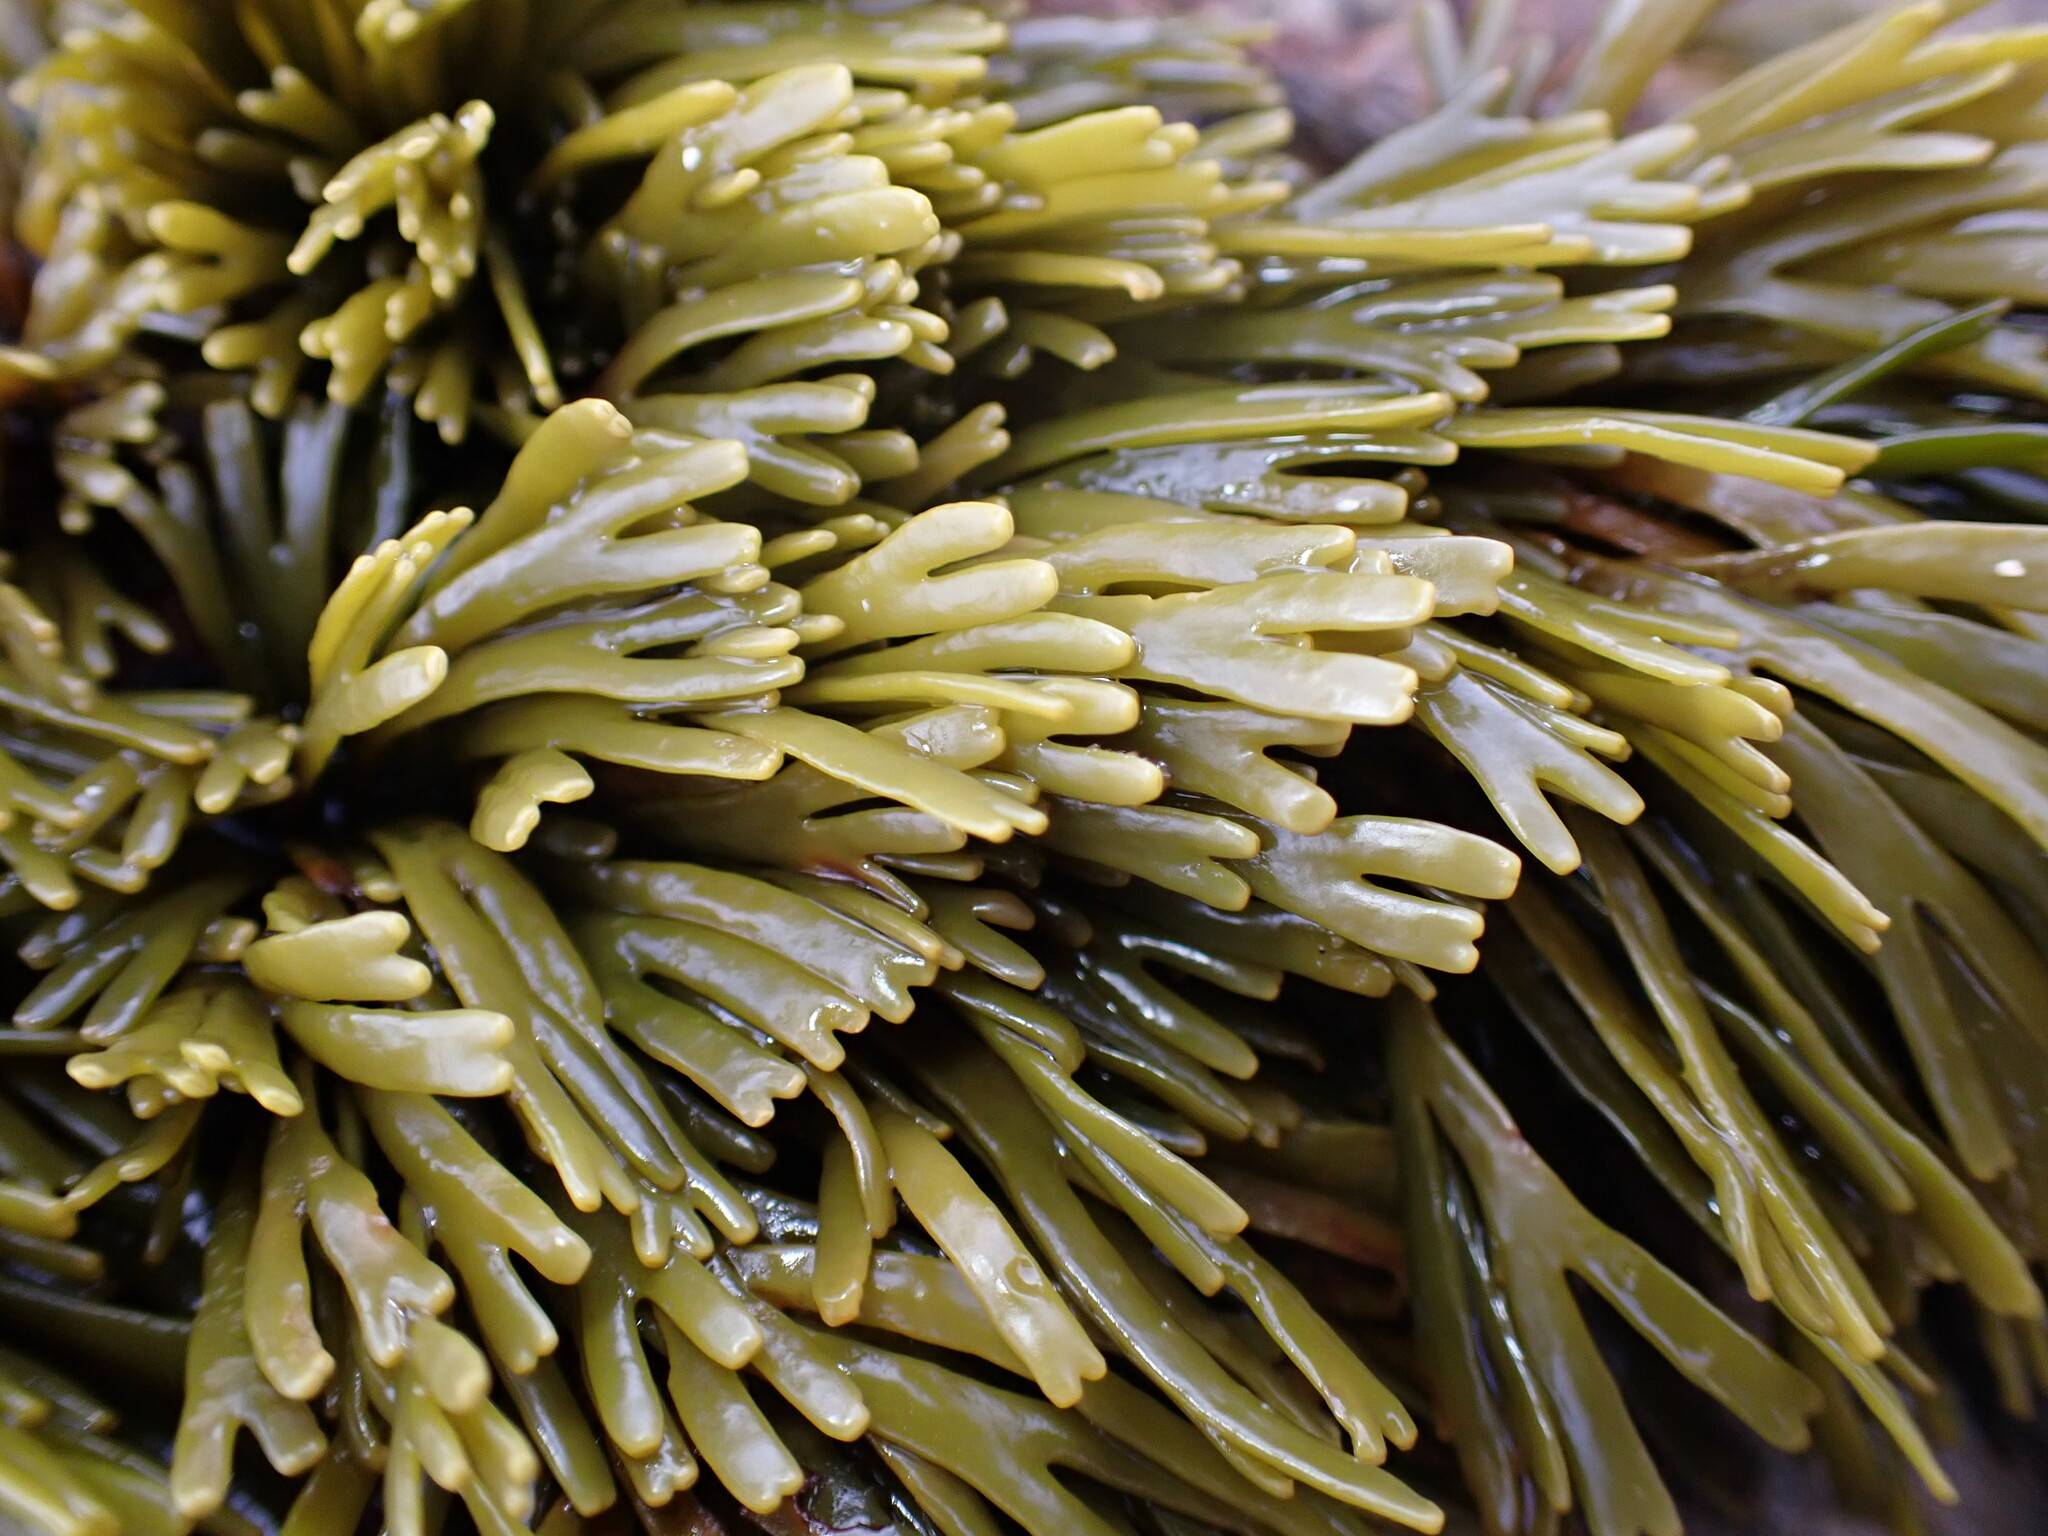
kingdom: Chromista
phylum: Ochrophyta
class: Phaeophyceae
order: Fucales
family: Fucaceae
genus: Pelvetiopsis
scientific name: Pelvetiopsis limitata
